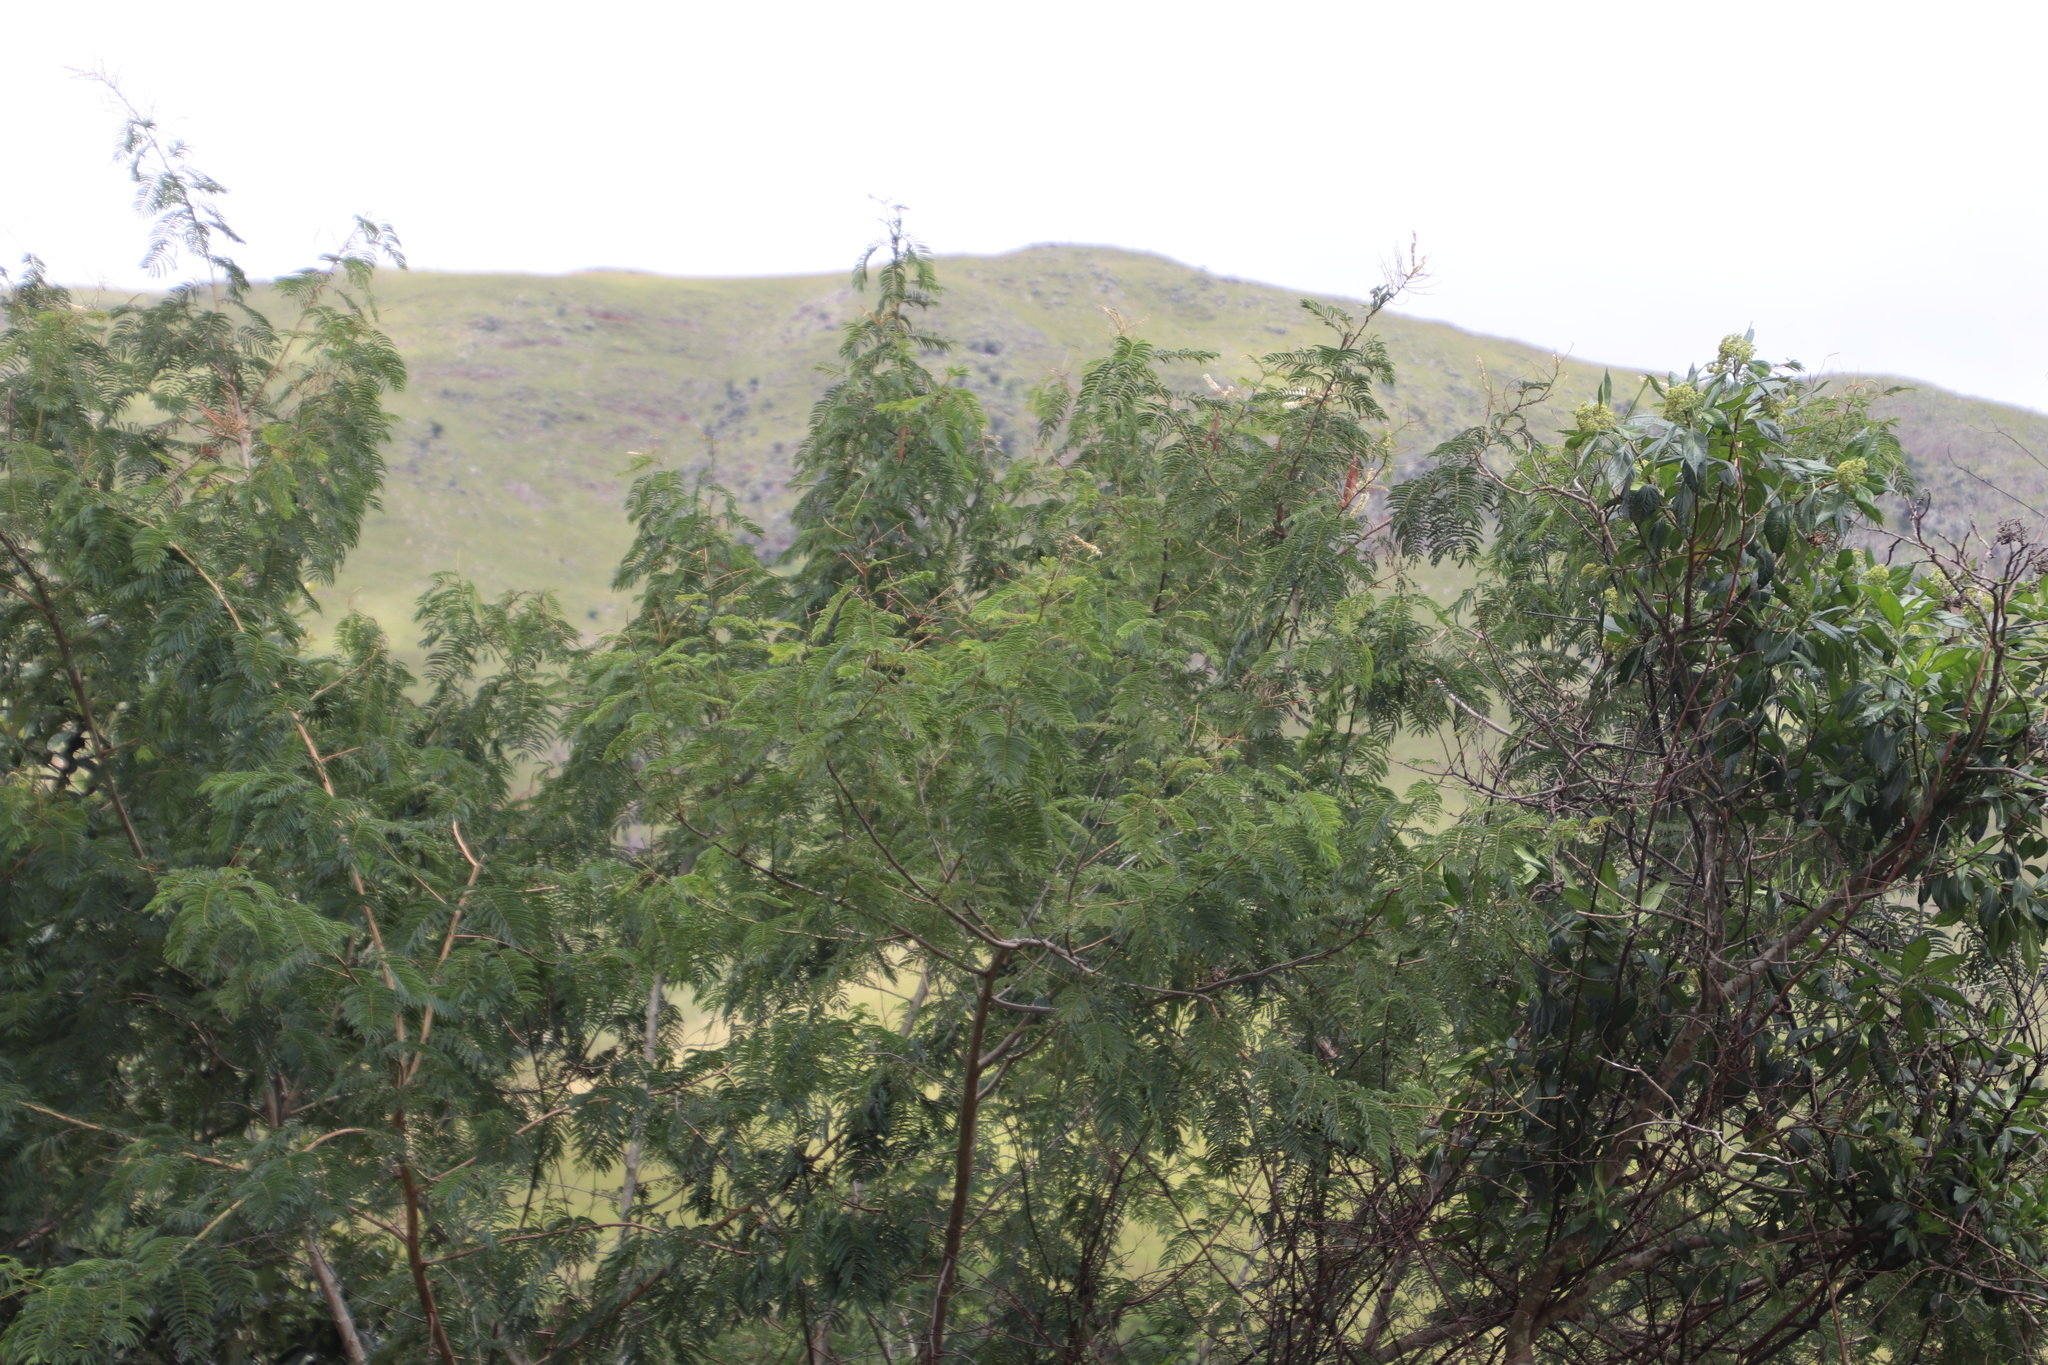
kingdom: Plantae
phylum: Tracheophyta
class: Magnoliopsida
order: Fabales
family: Fabaceae
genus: Senegalia
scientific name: Senegalia ataxacantha
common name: Flame acacia
